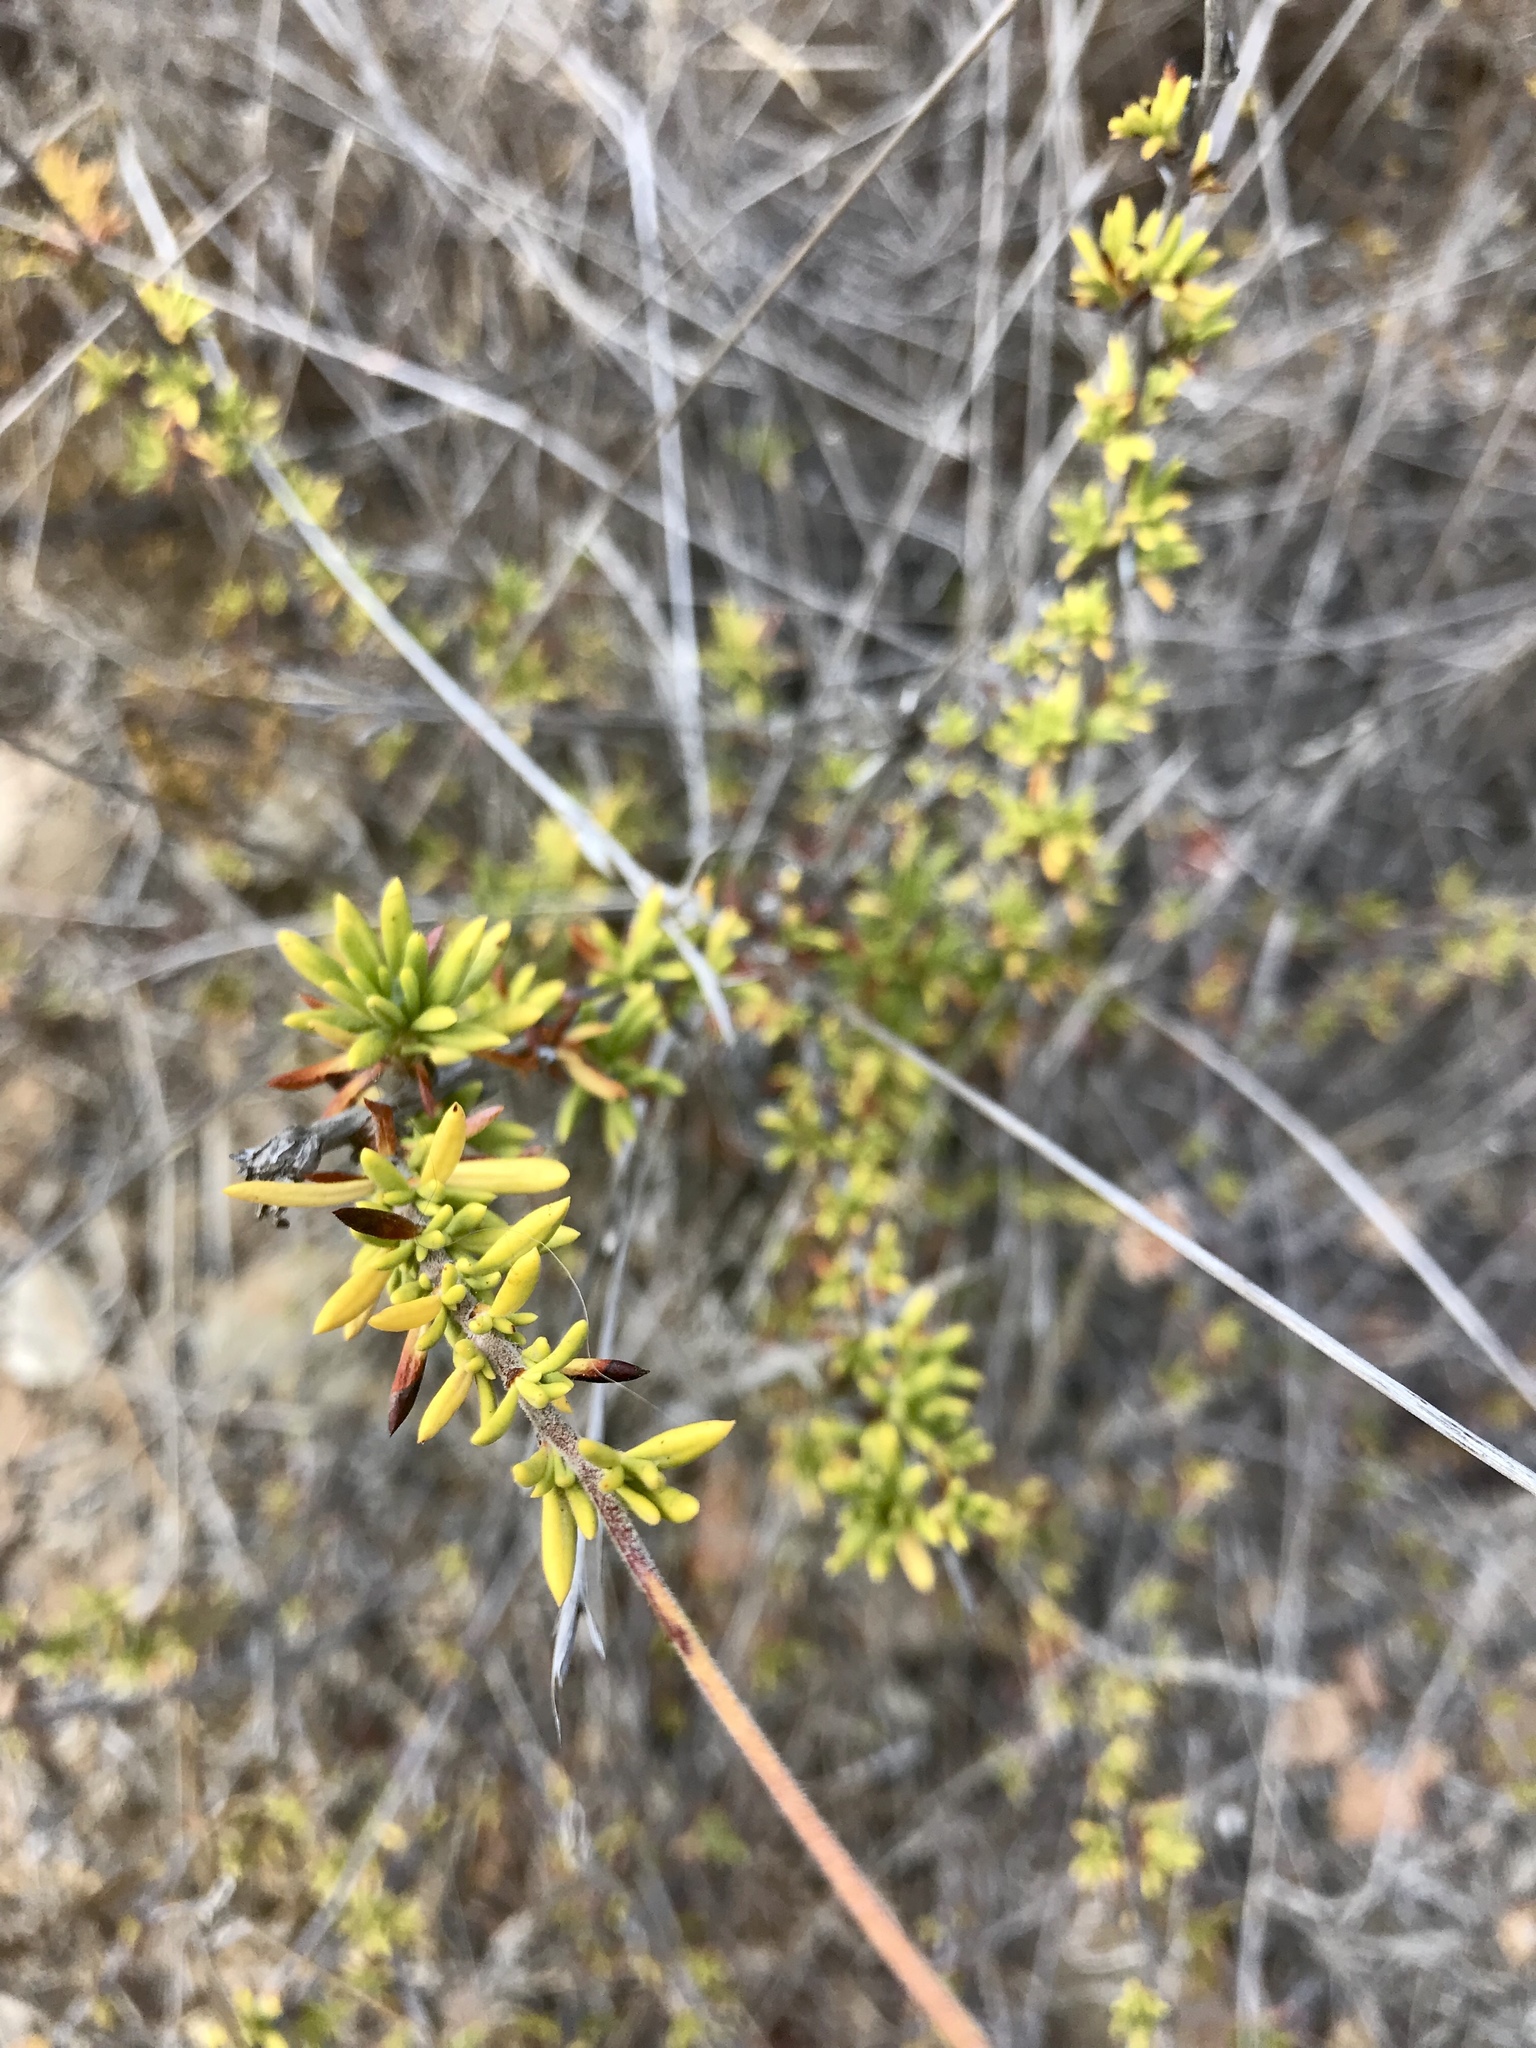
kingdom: Plantae
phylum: Tracheophyta
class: Magnoliopsida
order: Caryophyllales
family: Polygonaceae
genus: Eriogonum
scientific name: Eriogonum fasciculatum
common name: California wild buckwheat
